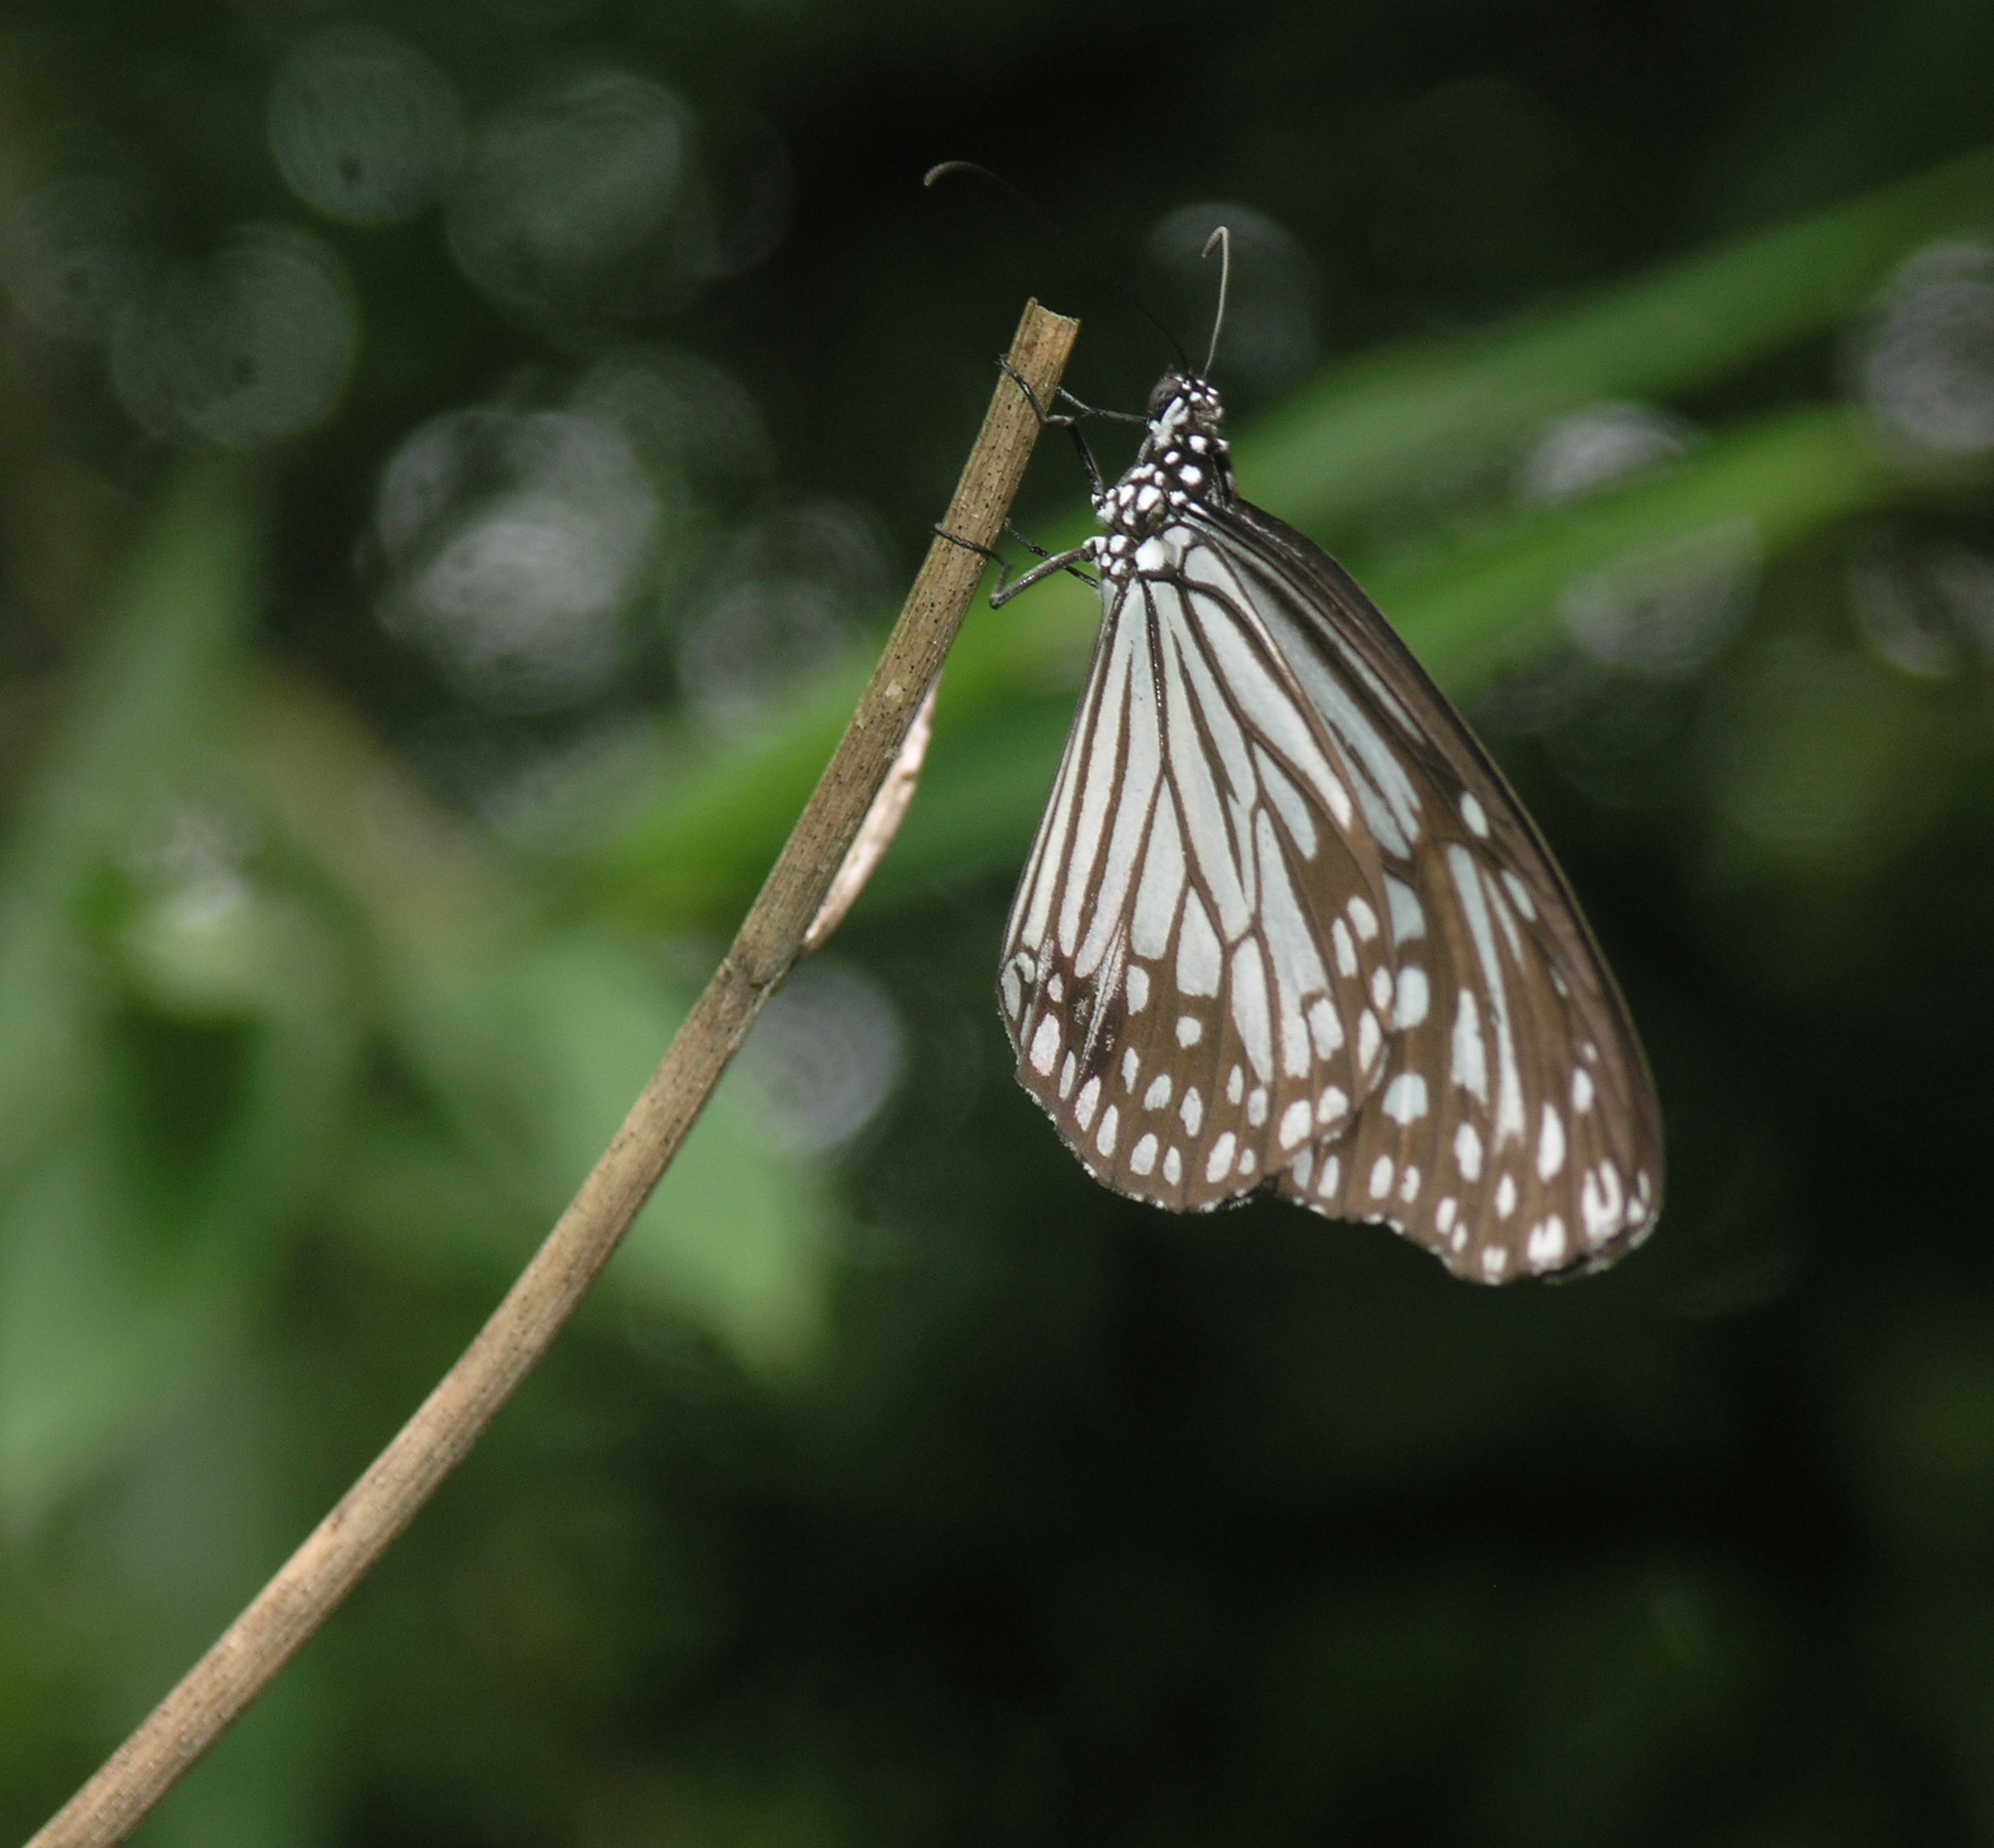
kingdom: Animalia
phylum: Arthropoda
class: Insecta
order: Lepidoptera
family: Nymphalidae
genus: Parantica
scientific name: Parantica aglea
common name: Glassy tiger
